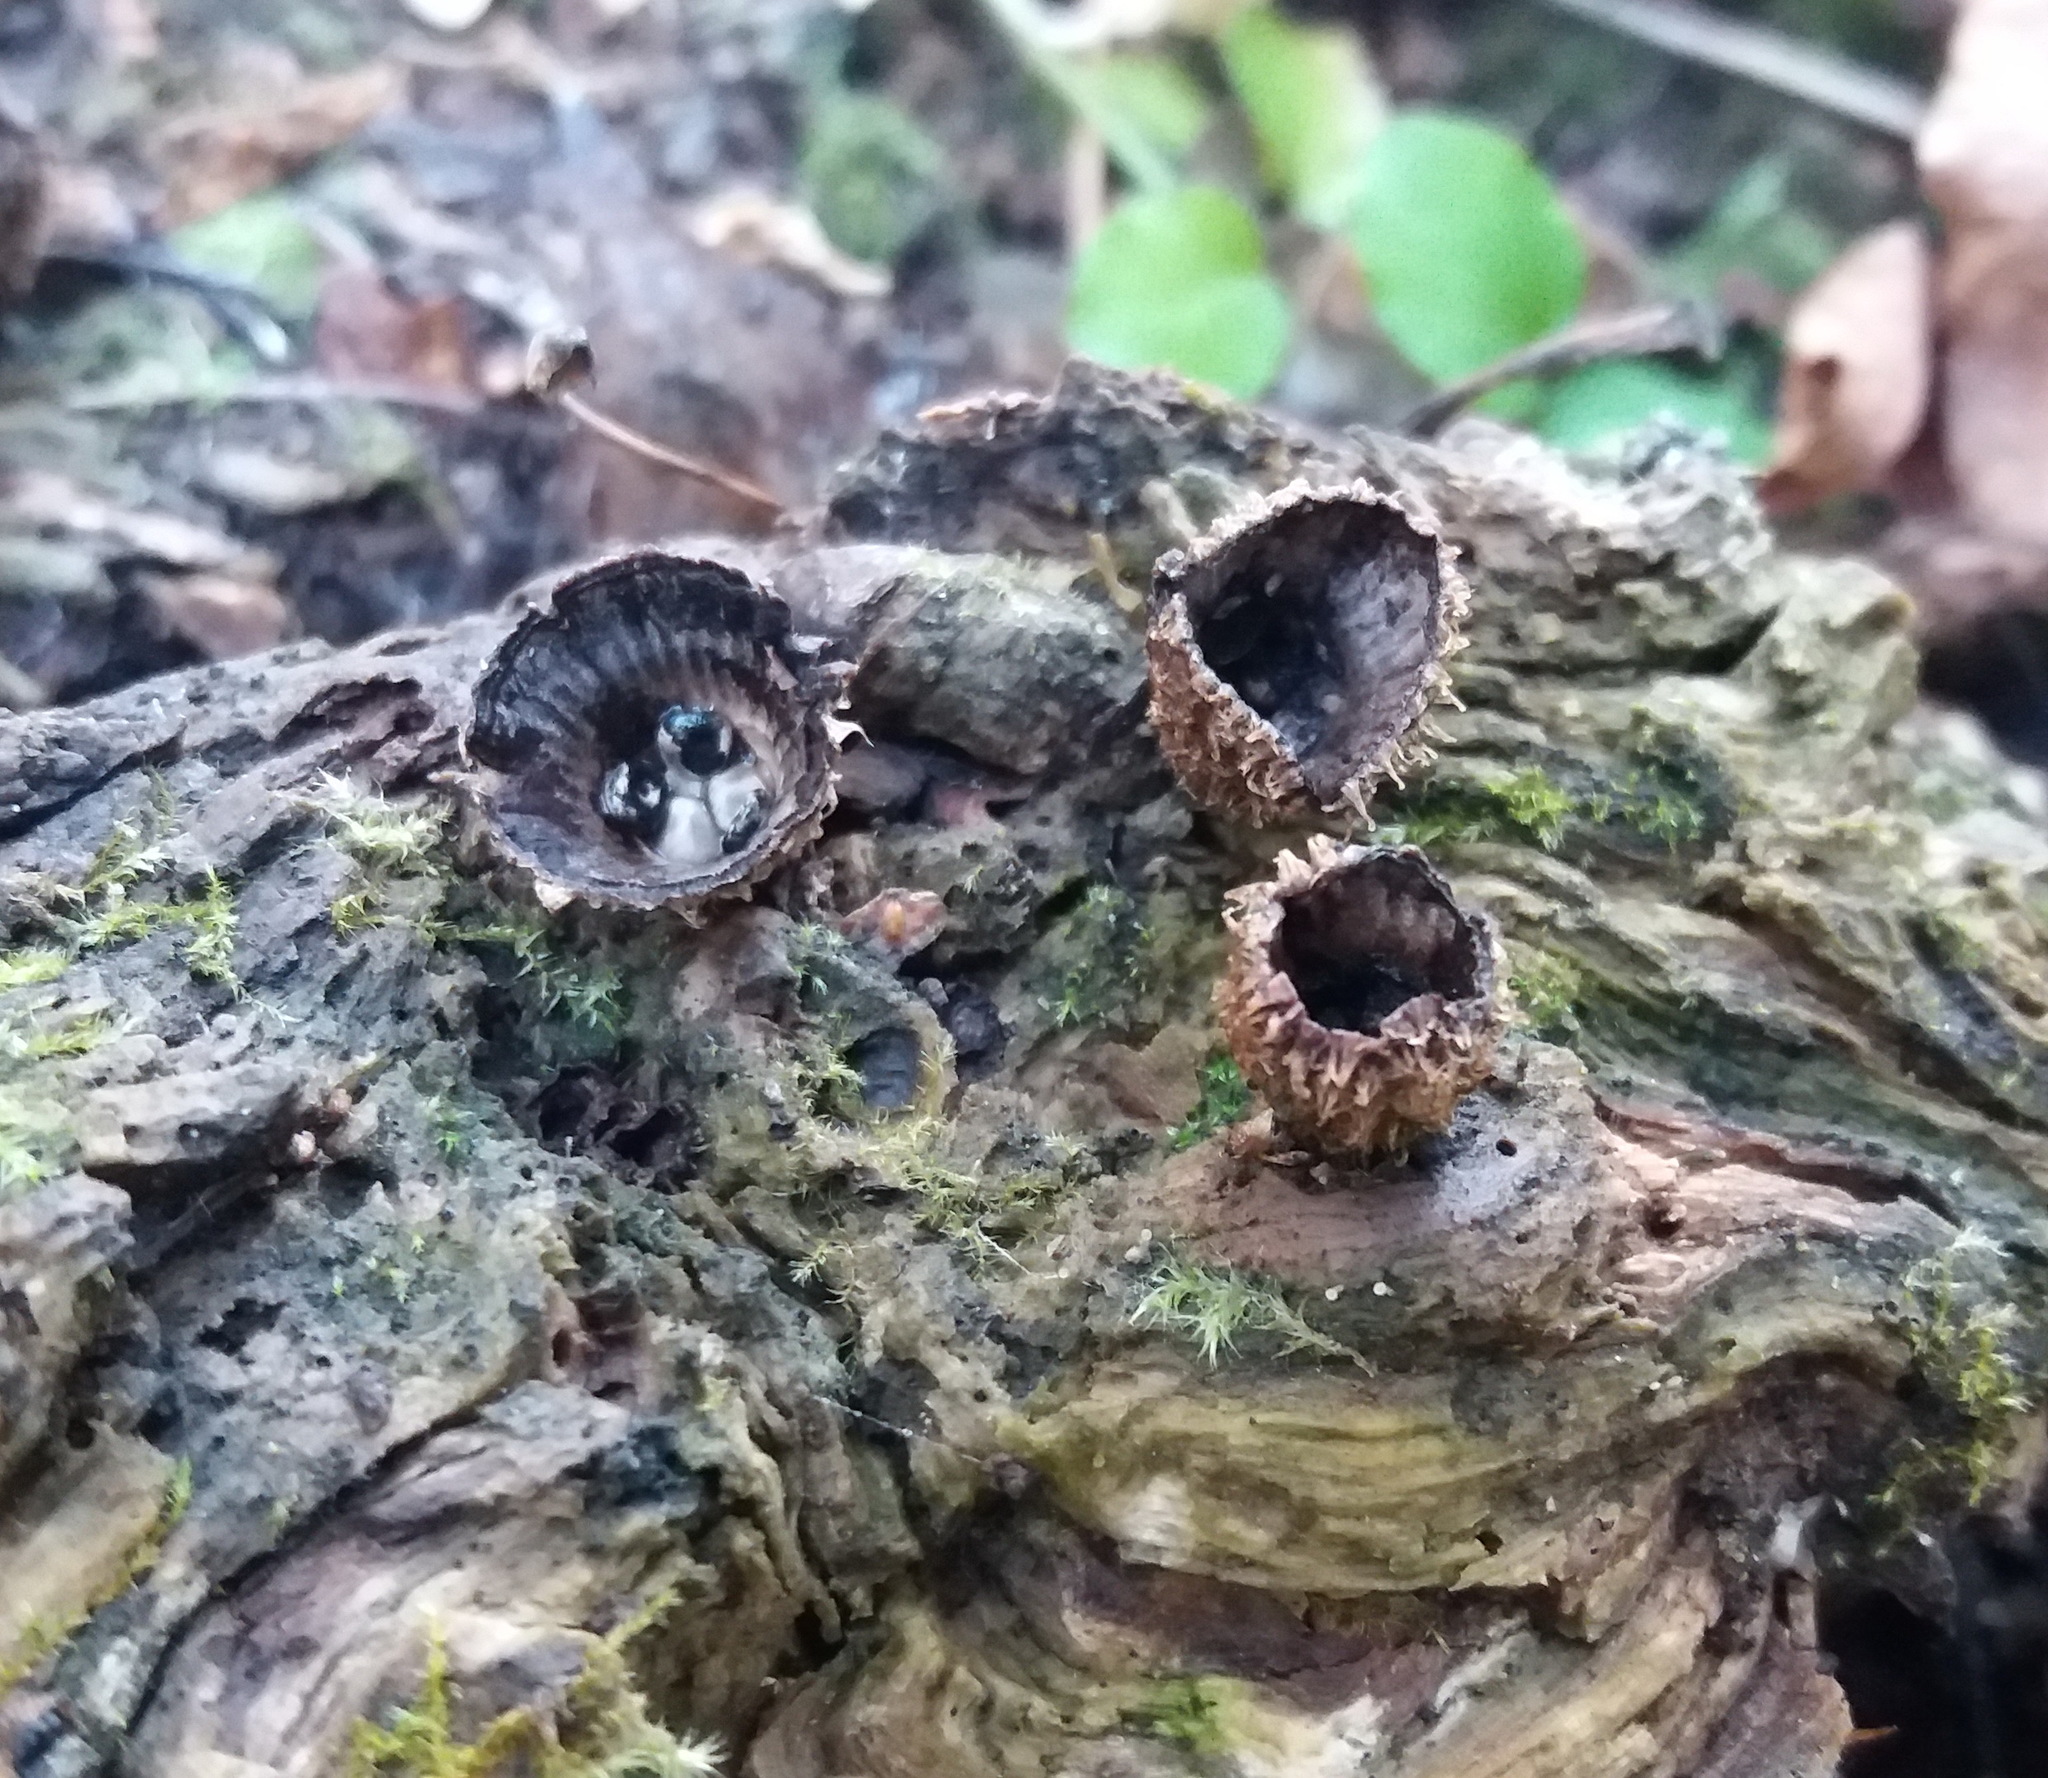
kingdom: Fungi
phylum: Basidiomycota
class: Agaricomycetes
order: Agaricales
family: Agaricaceae
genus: Cyathus
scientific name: Cyathus striatus
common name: Fluted bird's nest
